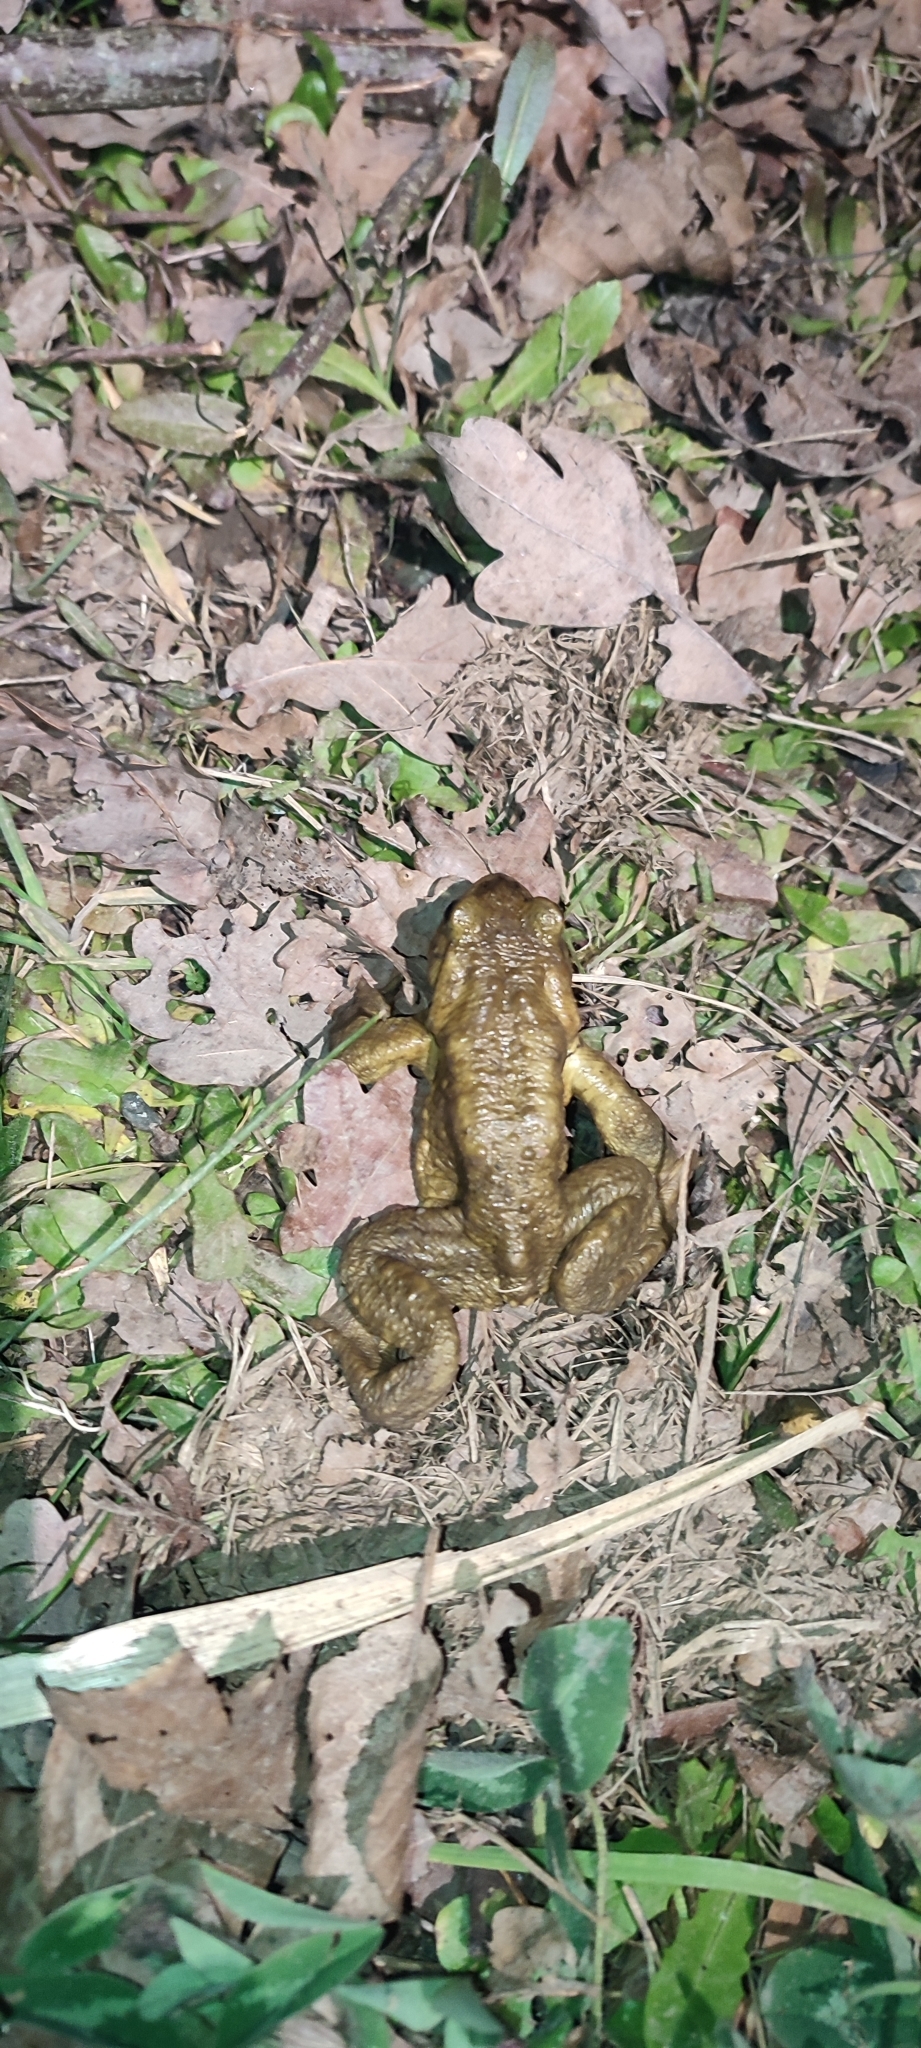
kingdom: Animalia
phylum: Chordata
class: Amphibia
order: Anura
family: Bufonidae
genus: Bufo
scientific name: Bufo spinosus
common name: Western common toad
